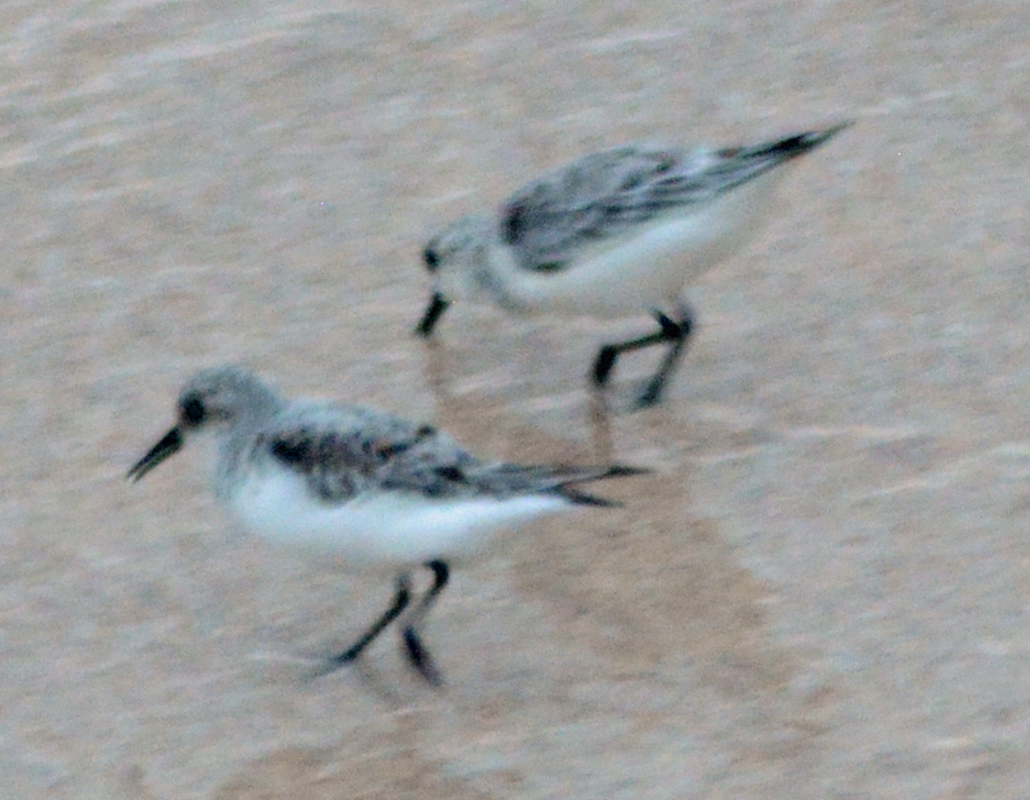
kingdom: Animalia
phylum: Chordata
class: Aves
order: Charadriiformes
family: Scolopacidae
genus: Calidris
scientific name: Calidris alba
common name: Sanderling
